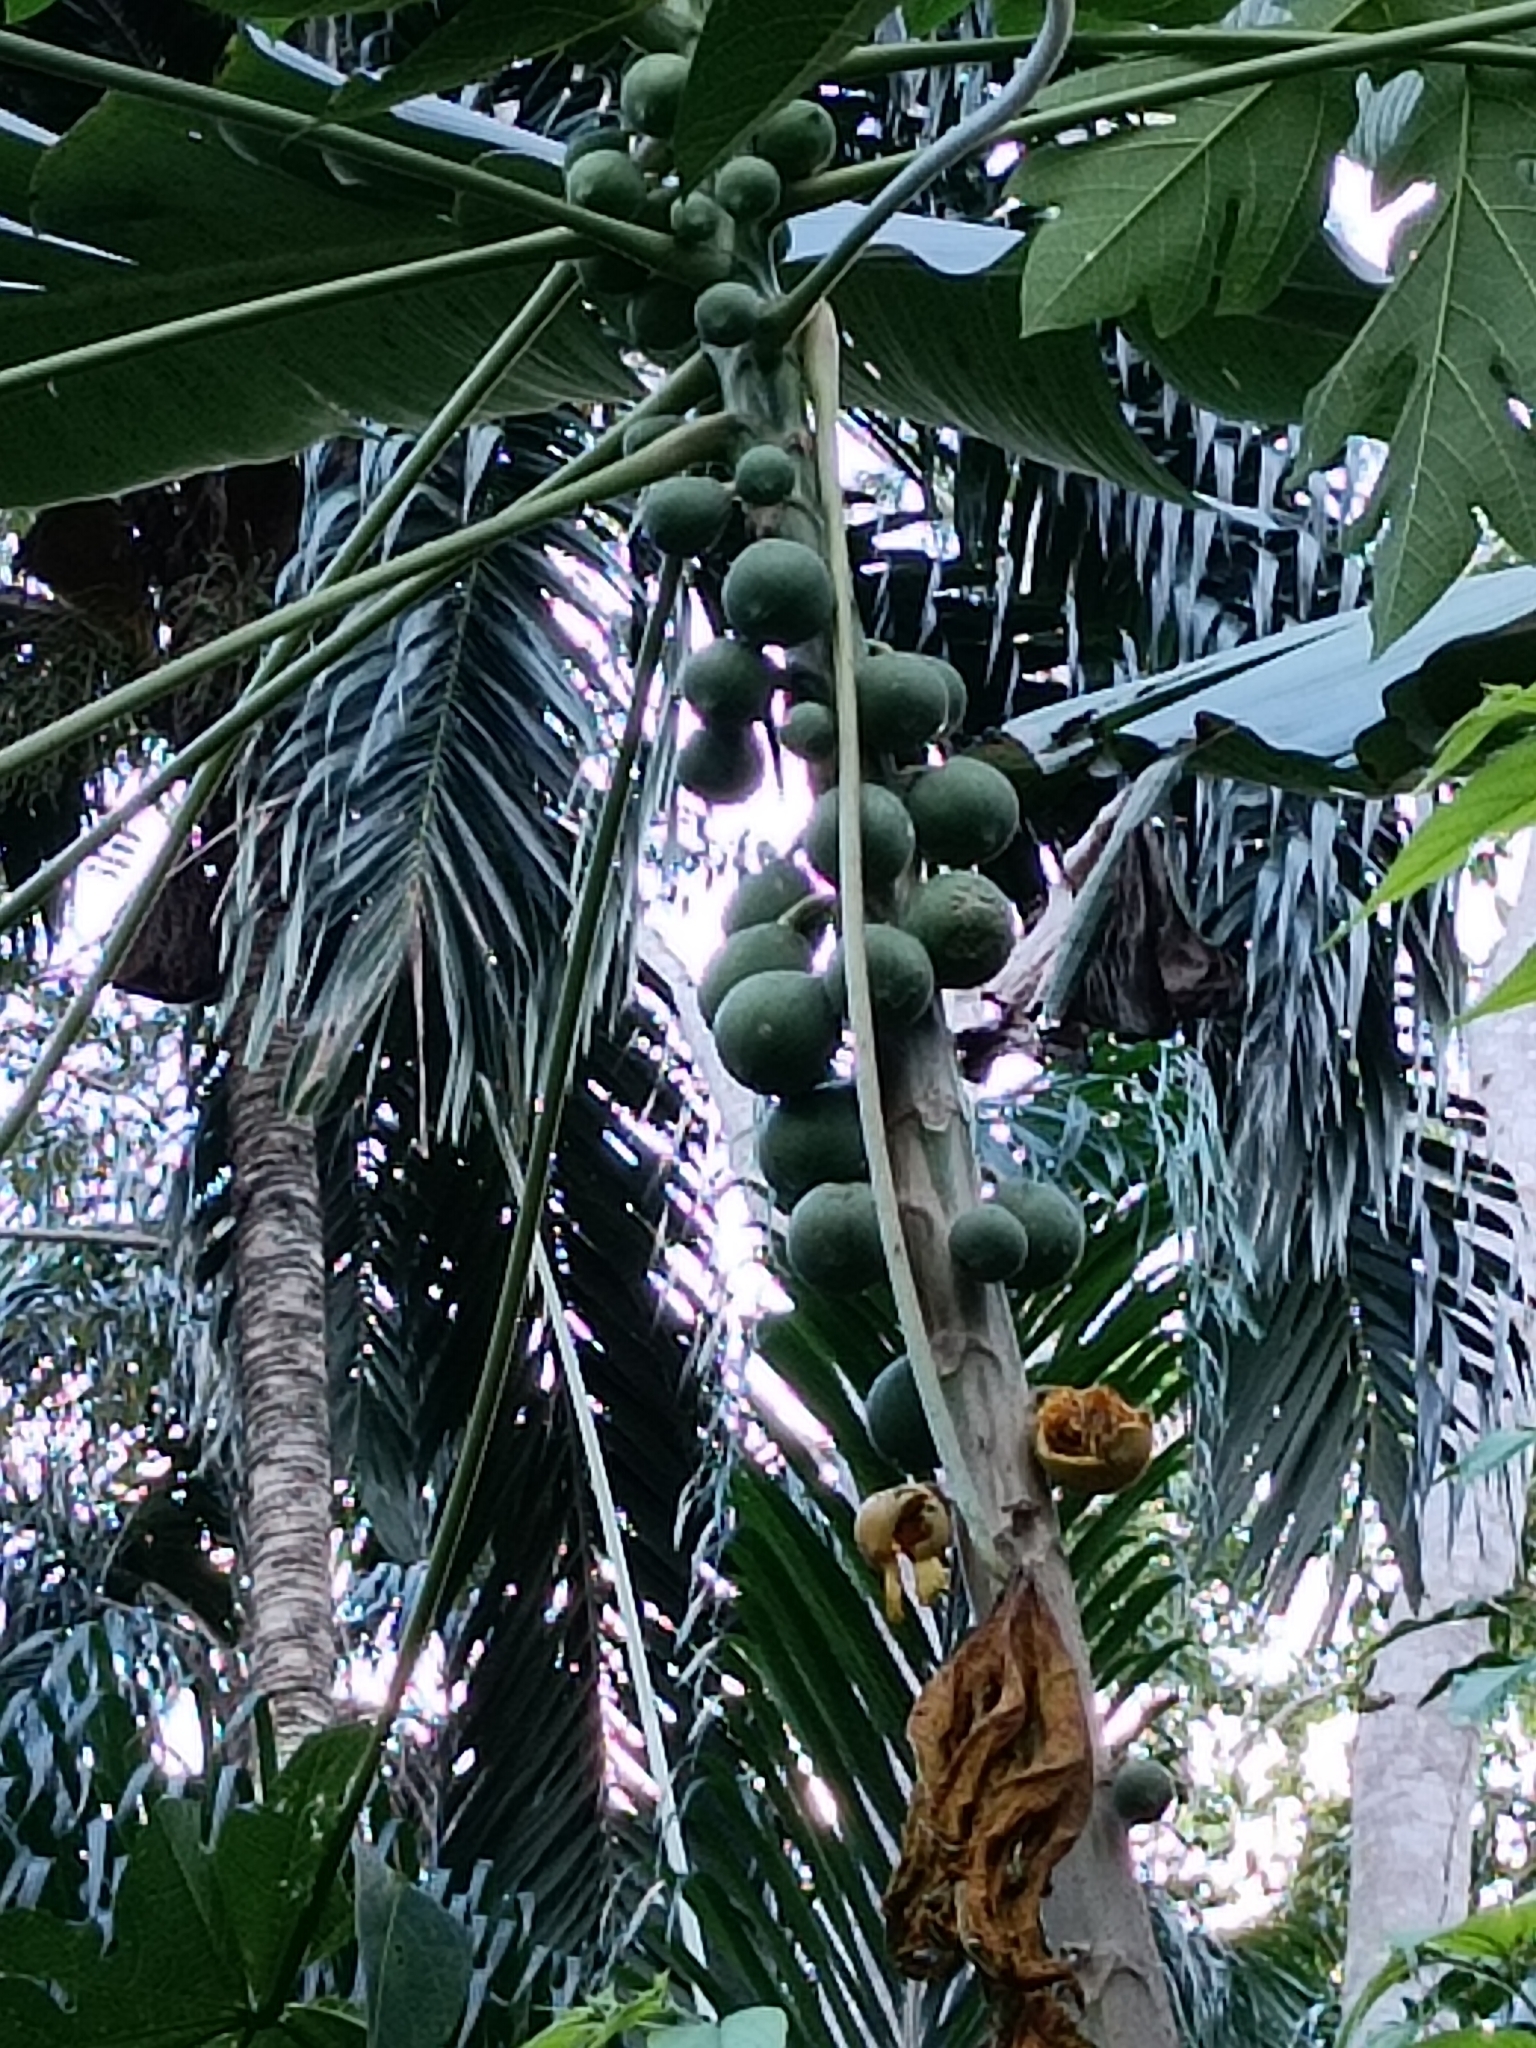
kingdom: Plantae
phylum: Tracheophyta
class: Magnoliopsida
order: Brassicales
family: Caricaceae
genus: Carica
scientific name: Carica papaya
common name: Papaya
